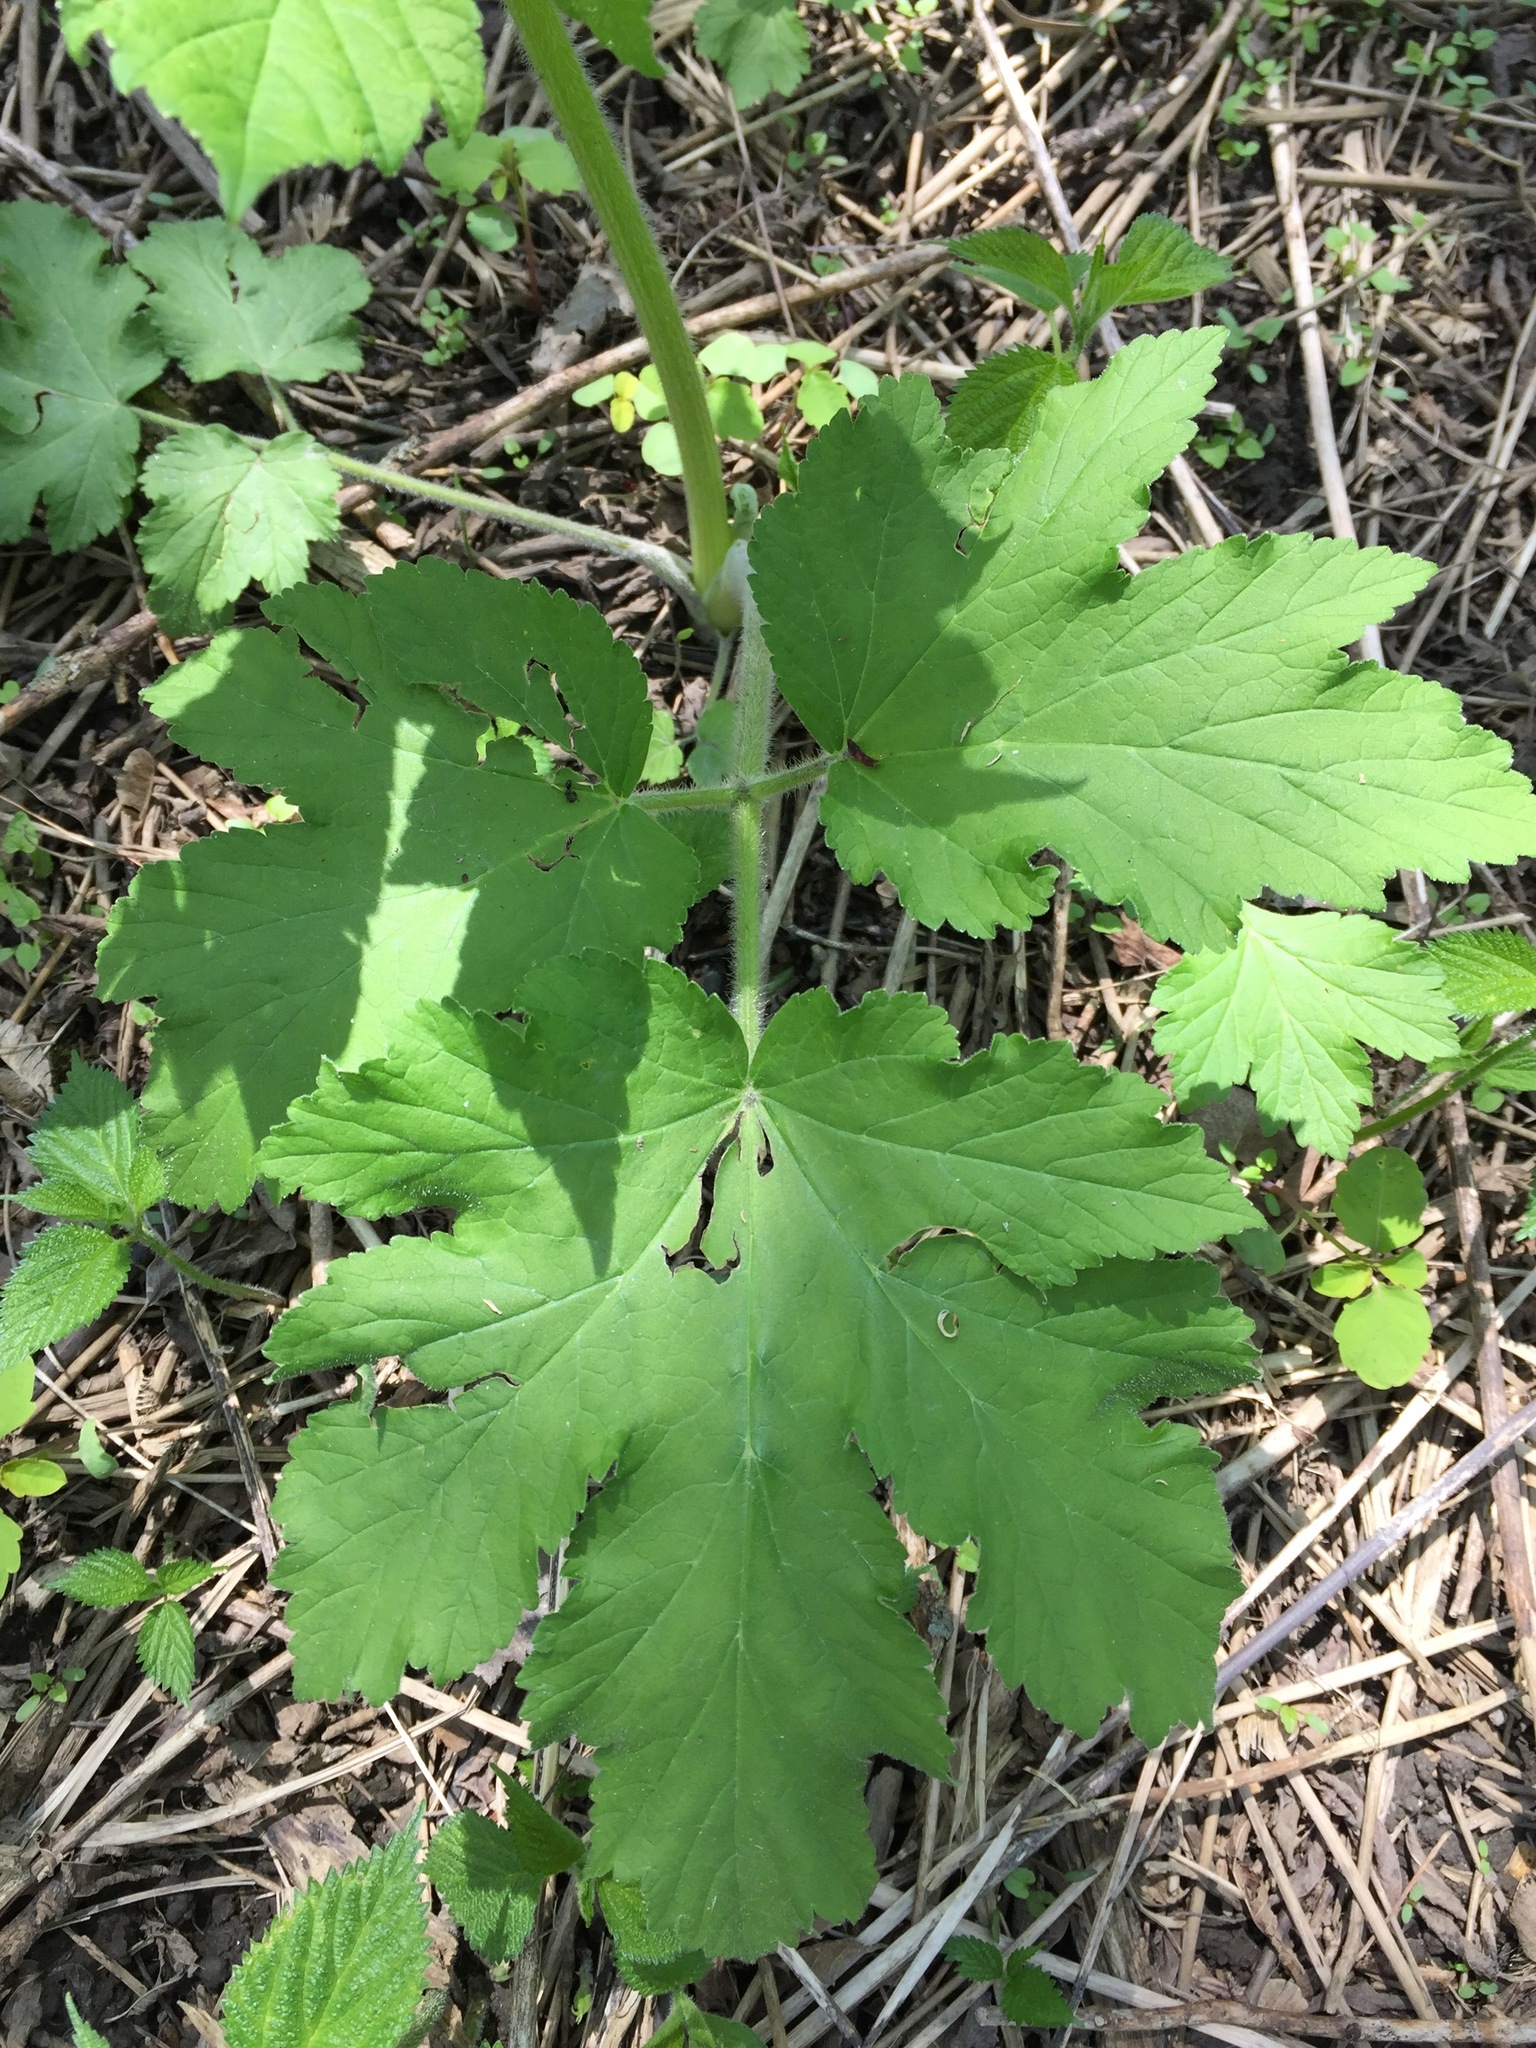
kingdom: Plantae
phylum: Tracheophyta
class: Magnoliopsida
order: Apiales
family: Apiaceae
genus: Heracleum
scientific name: Heracleum maximum
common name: American cow parsnip
